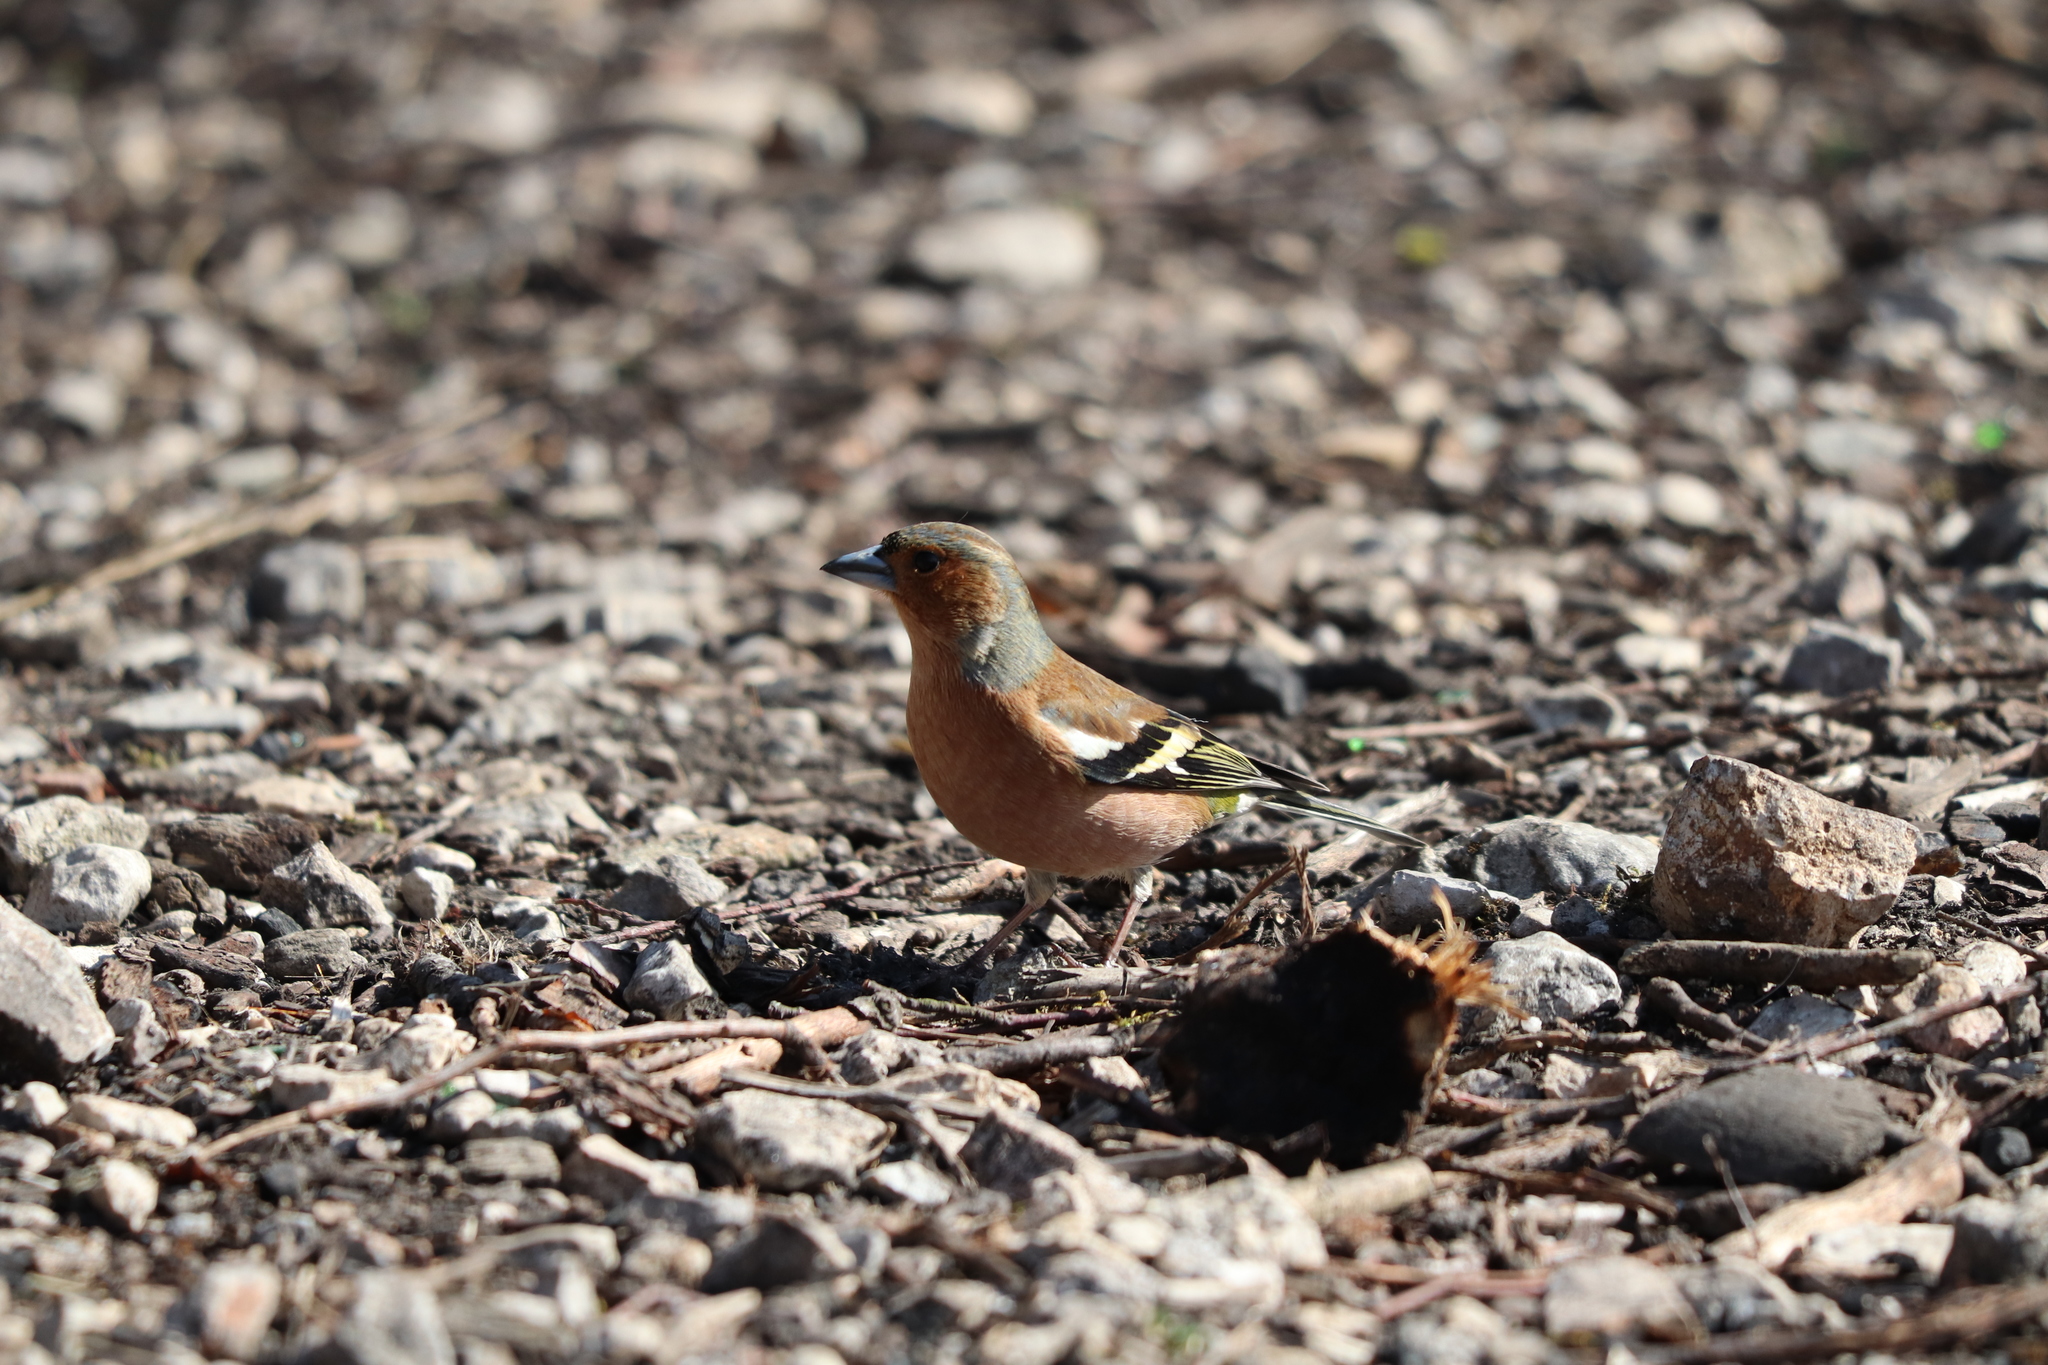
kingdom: Animalia
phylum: Chordata
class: Aves
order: Passeriformes
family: Fringillidae
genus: Fringilla
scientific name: Fringilla coelebs
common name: Common chaffinch
